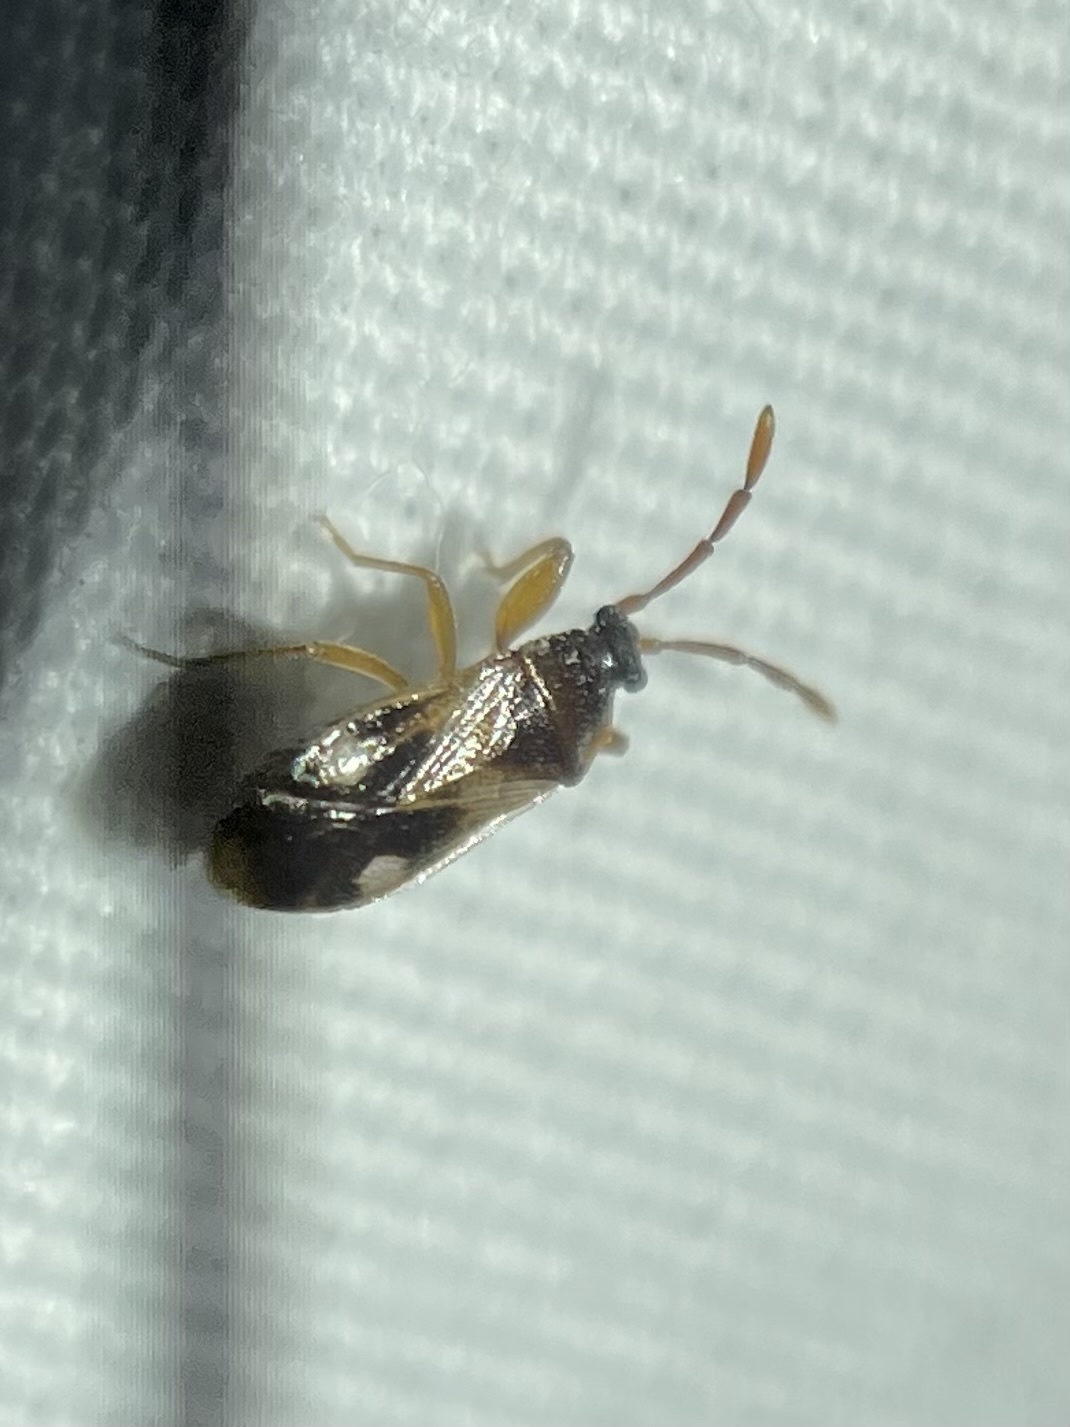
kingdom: Animalia
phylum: Arthropoda
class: Insecta
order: Hemiptera
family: Rhyparochromidae
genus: Tempyra
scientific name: Tempyra biguttula
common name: Seed bug
